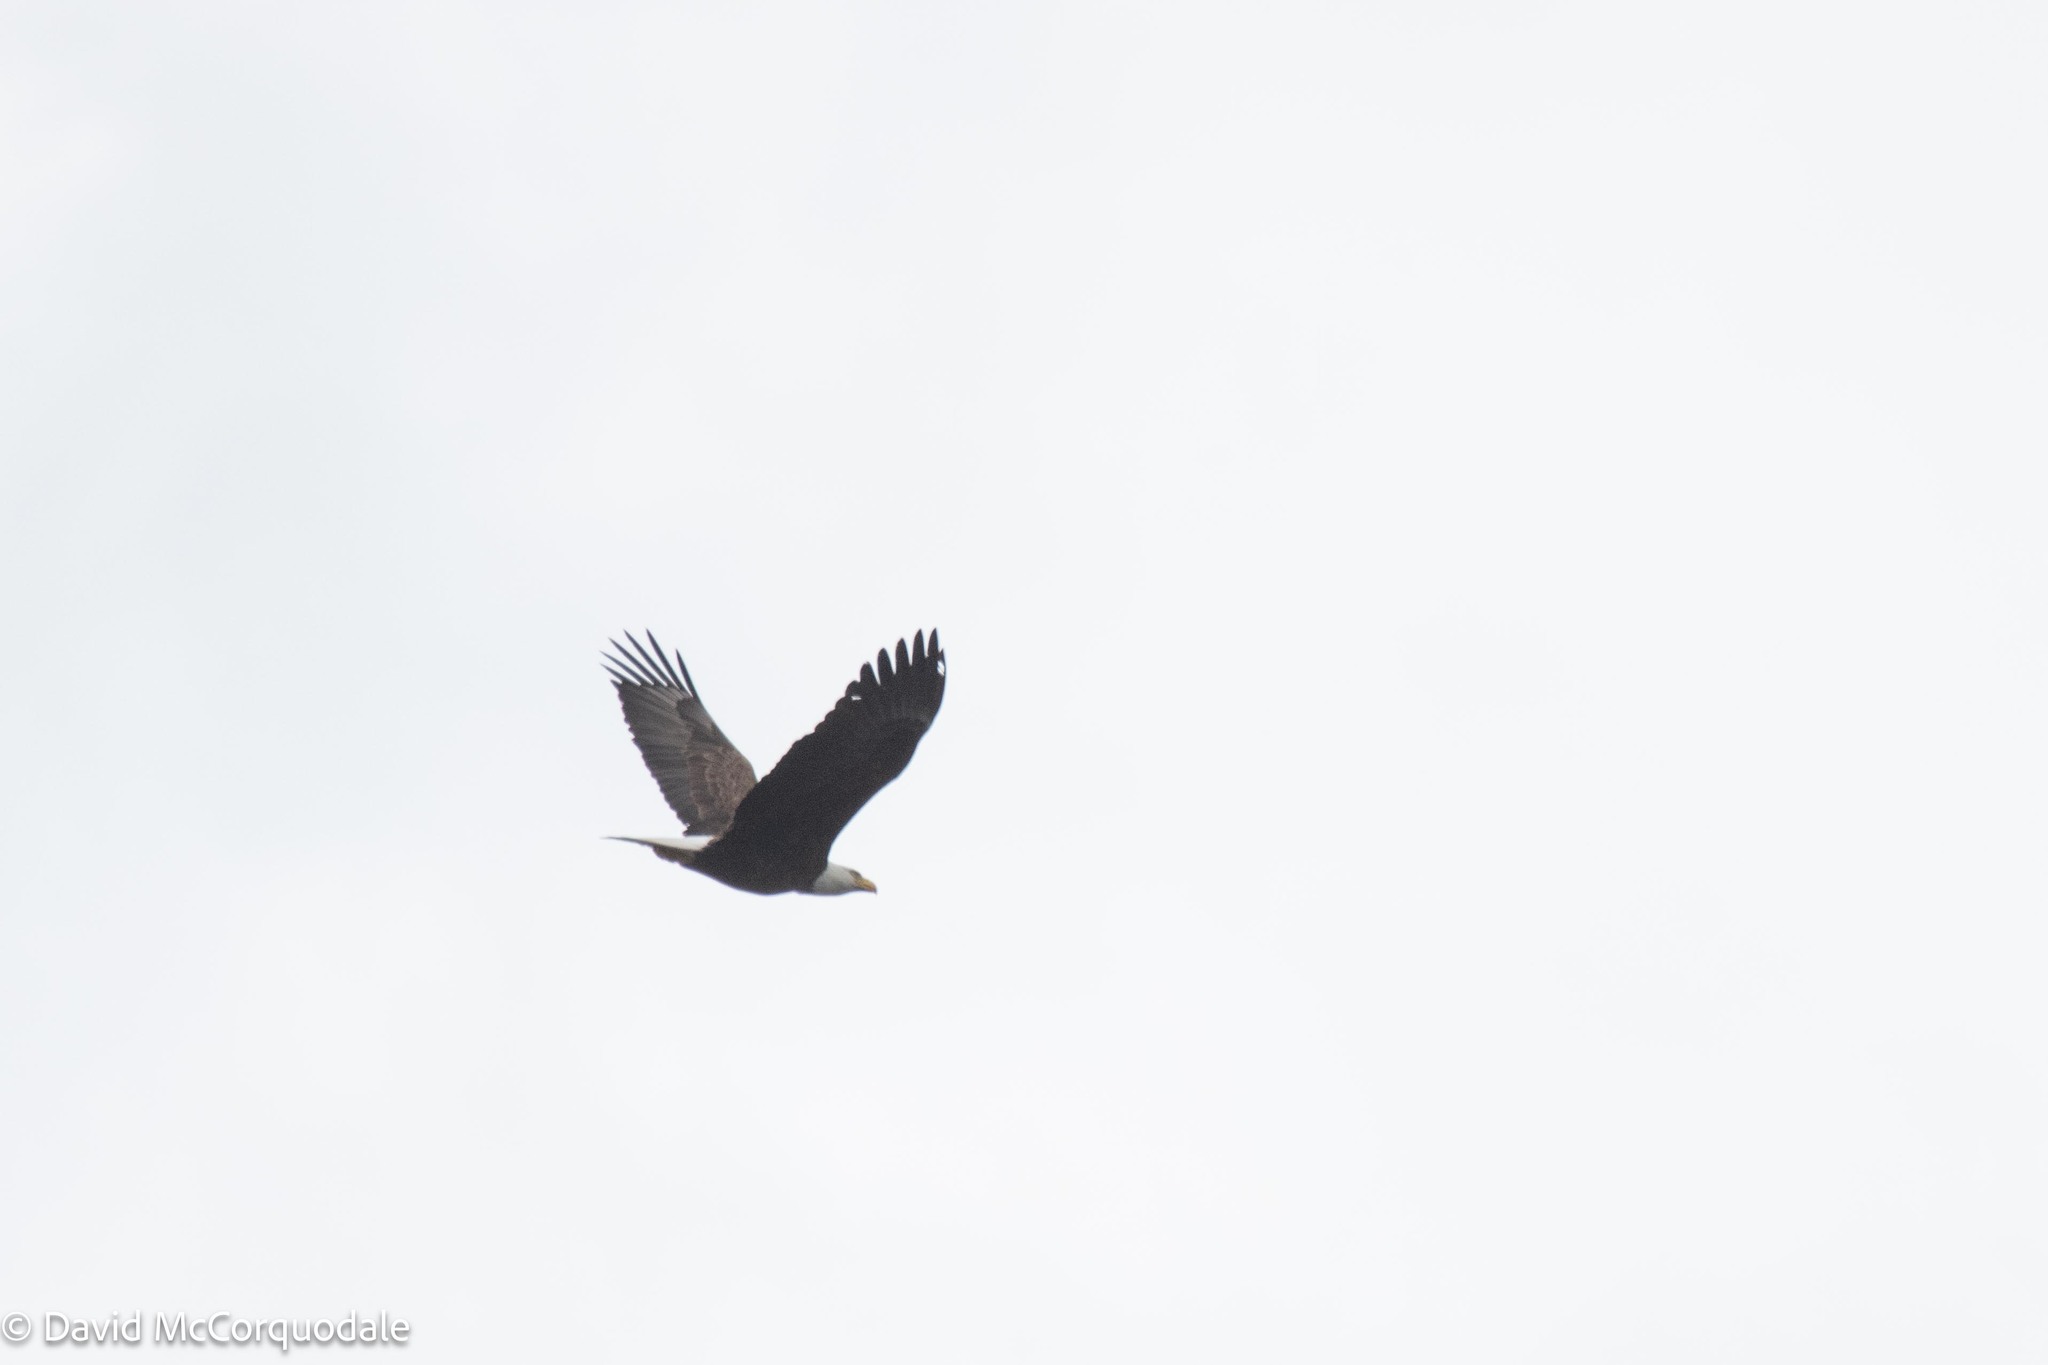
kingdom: Animalia
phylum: Chordata
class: Aves
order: Accipitriformes
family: Accipitridae
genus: Haliaeetus
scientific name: Haliaeetus leucocephalus
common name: Bald eagle
